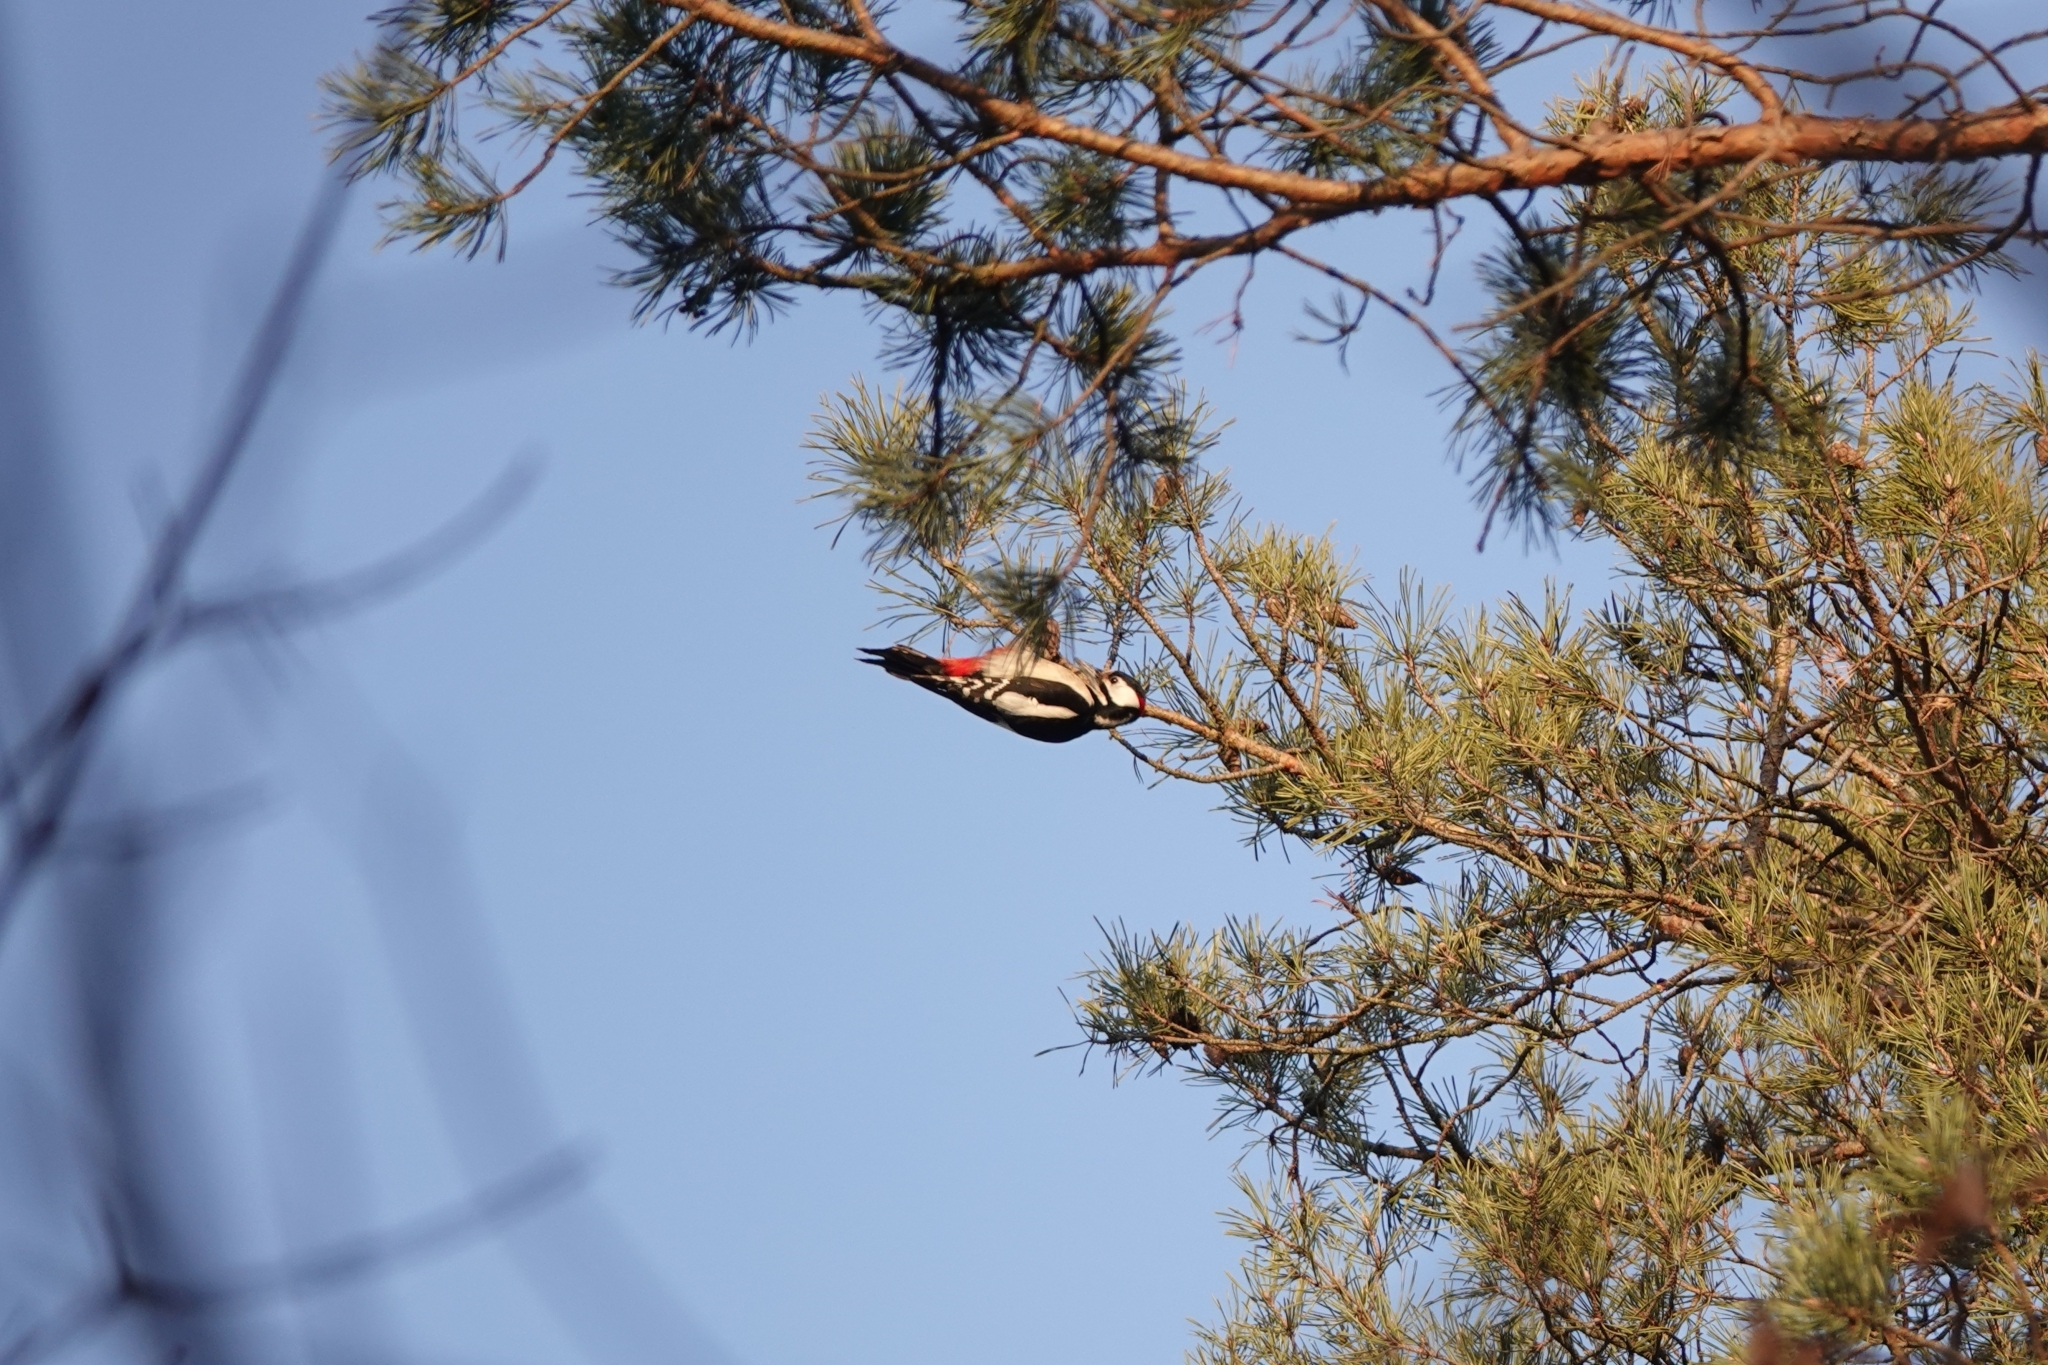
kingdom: Animalia
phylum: Chordata
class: Aves
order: Piciformes
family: Picidae
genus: Dendrocopos
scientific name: Dendrocopos major
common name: Great spotted woodpecker
